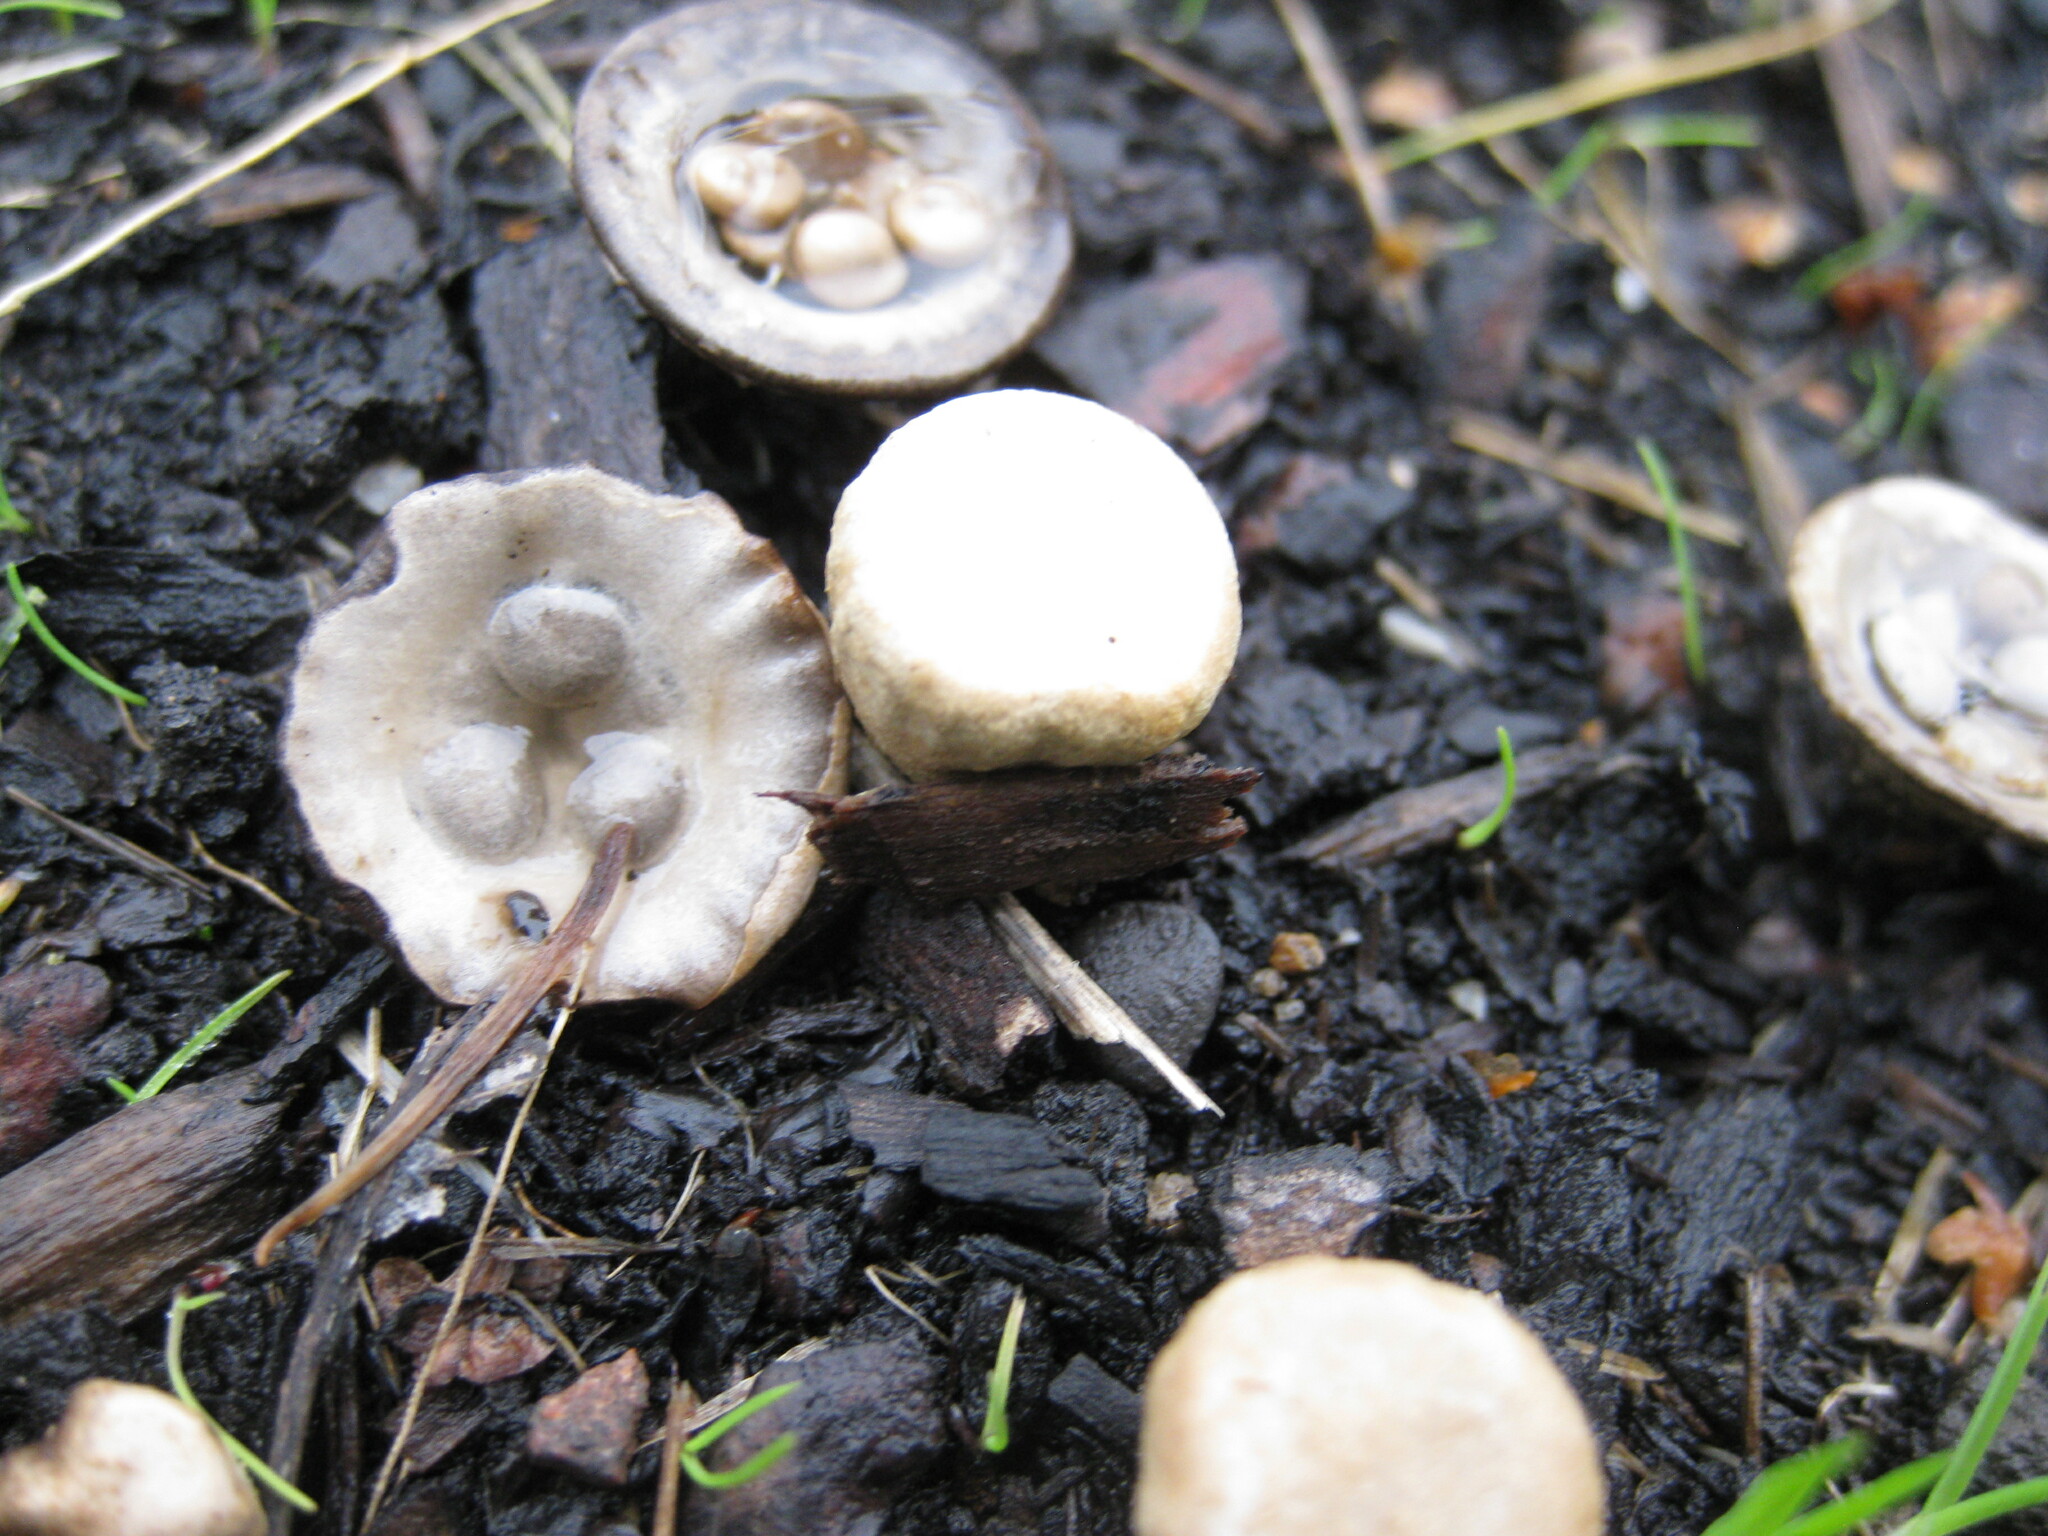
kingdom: Fungi
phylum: Basidiomycota
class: Agaricomycetes
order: Agaricales
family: Agaricaceae
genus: Cyathus
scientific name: Cyathus olla
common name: Field bird's nest
